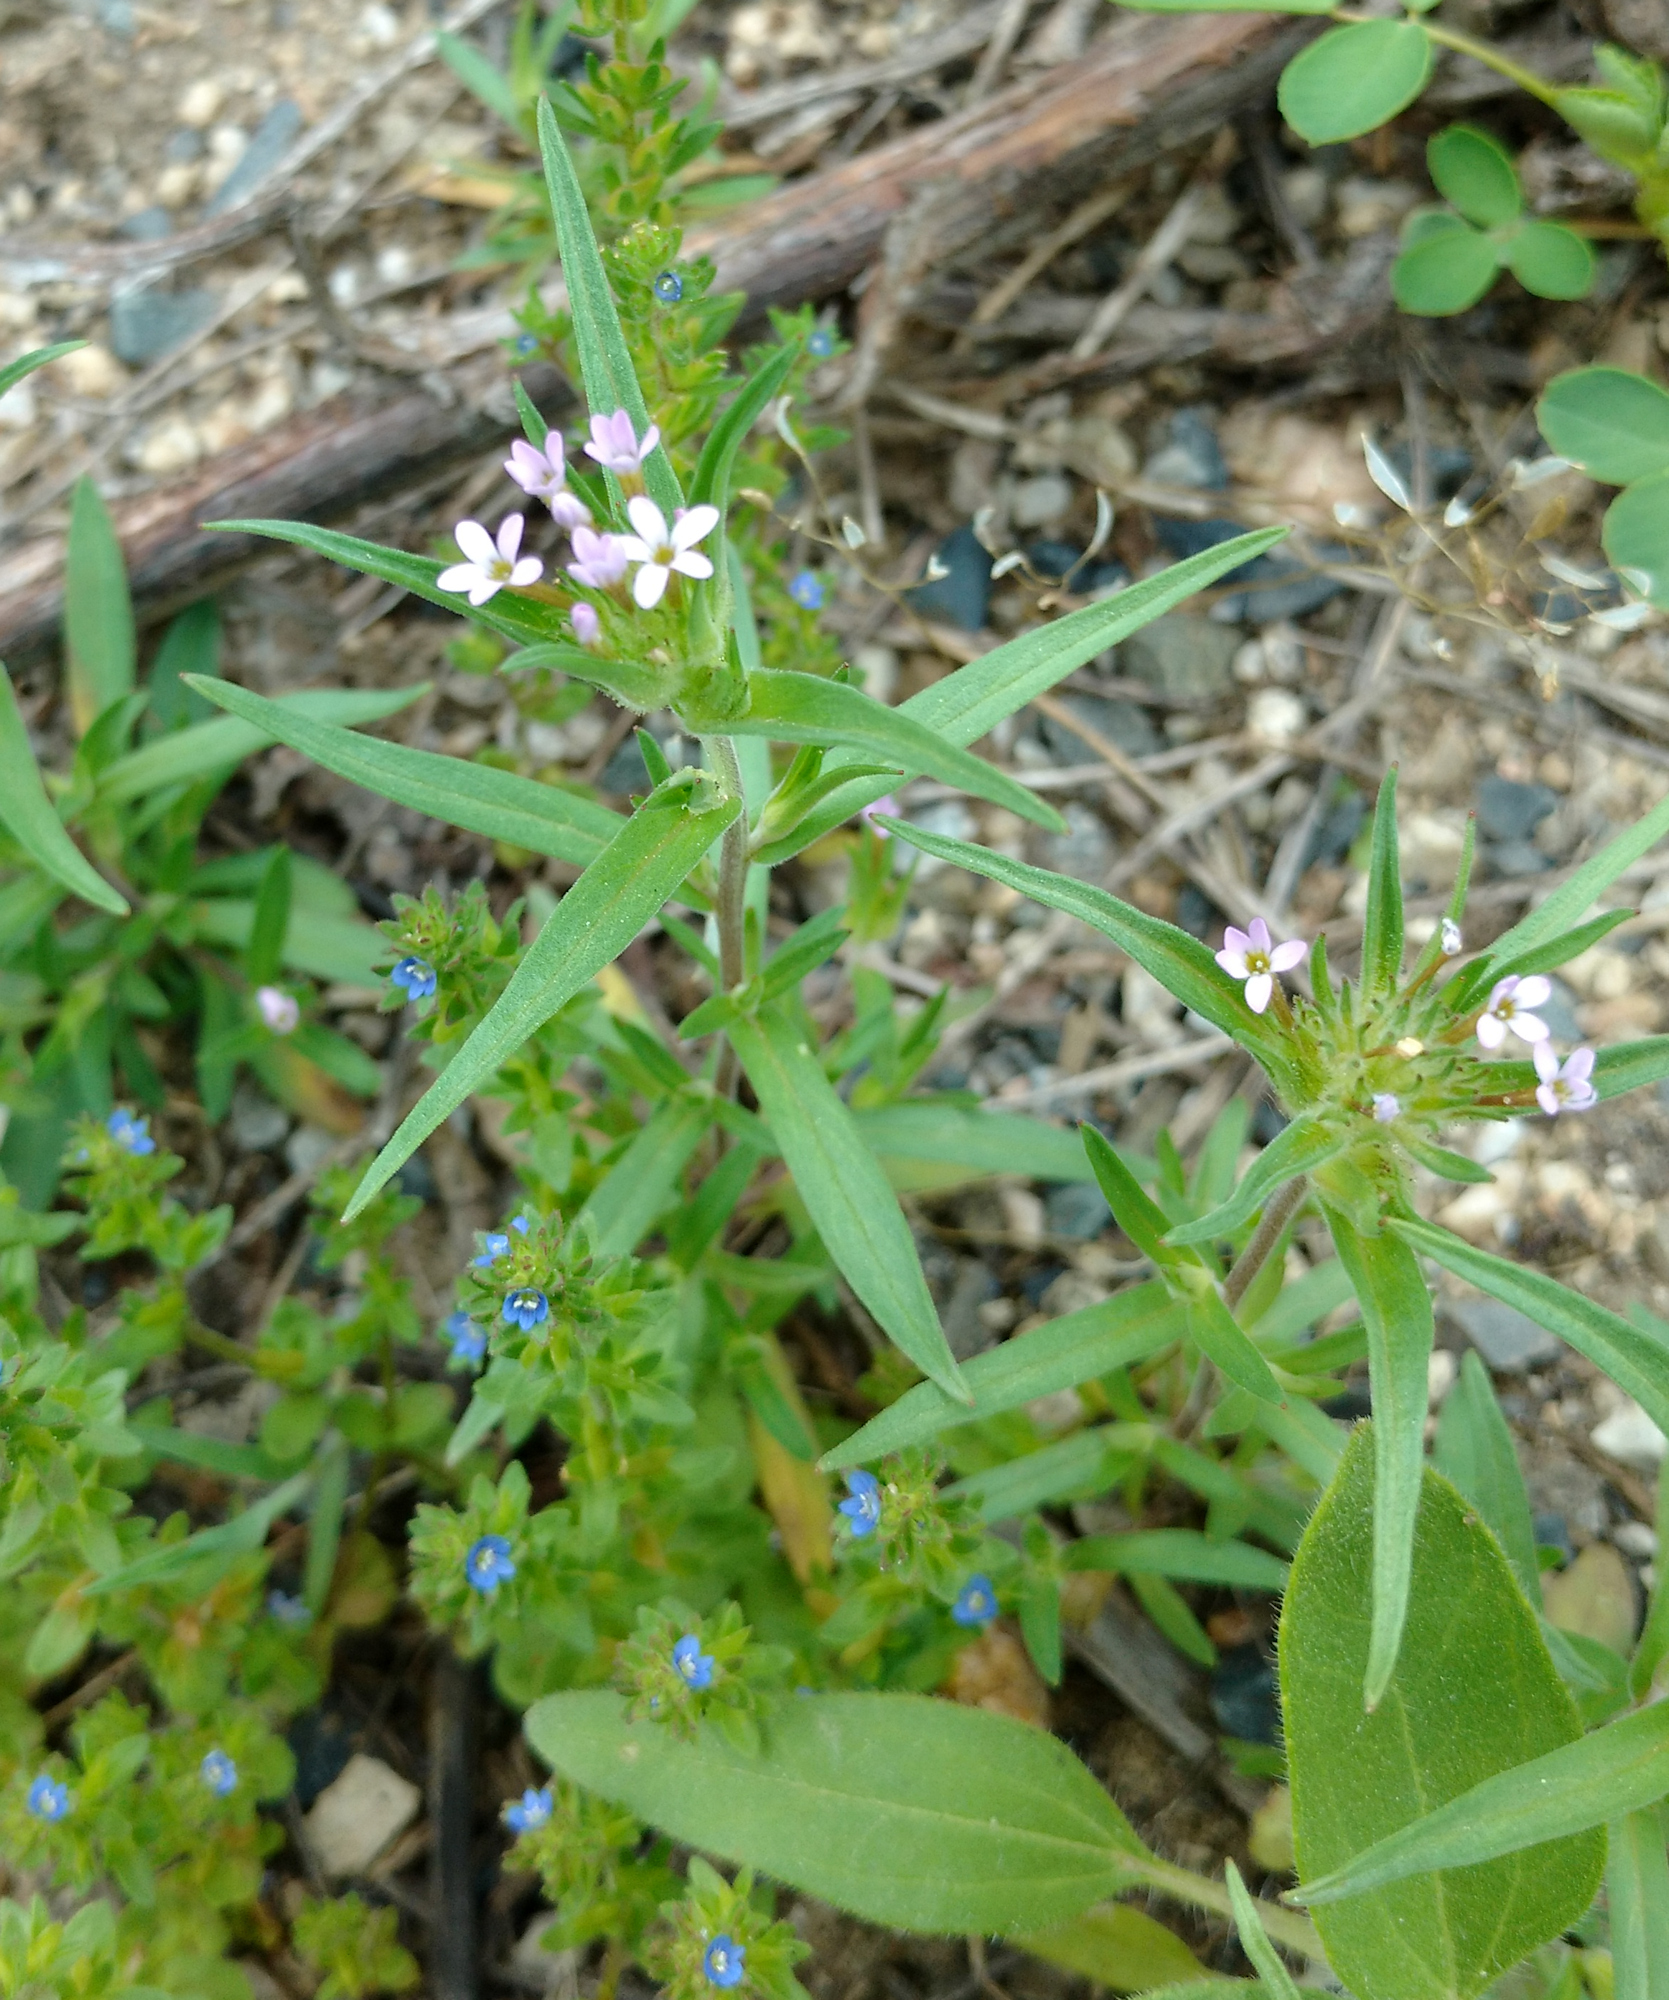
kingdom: Plantae
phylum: Tracheophyta
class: Magnoliopsida
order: Ericales
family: Polemoniaceae
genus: Collomia
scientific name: Collomia linearis
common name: Tiny trumpet
